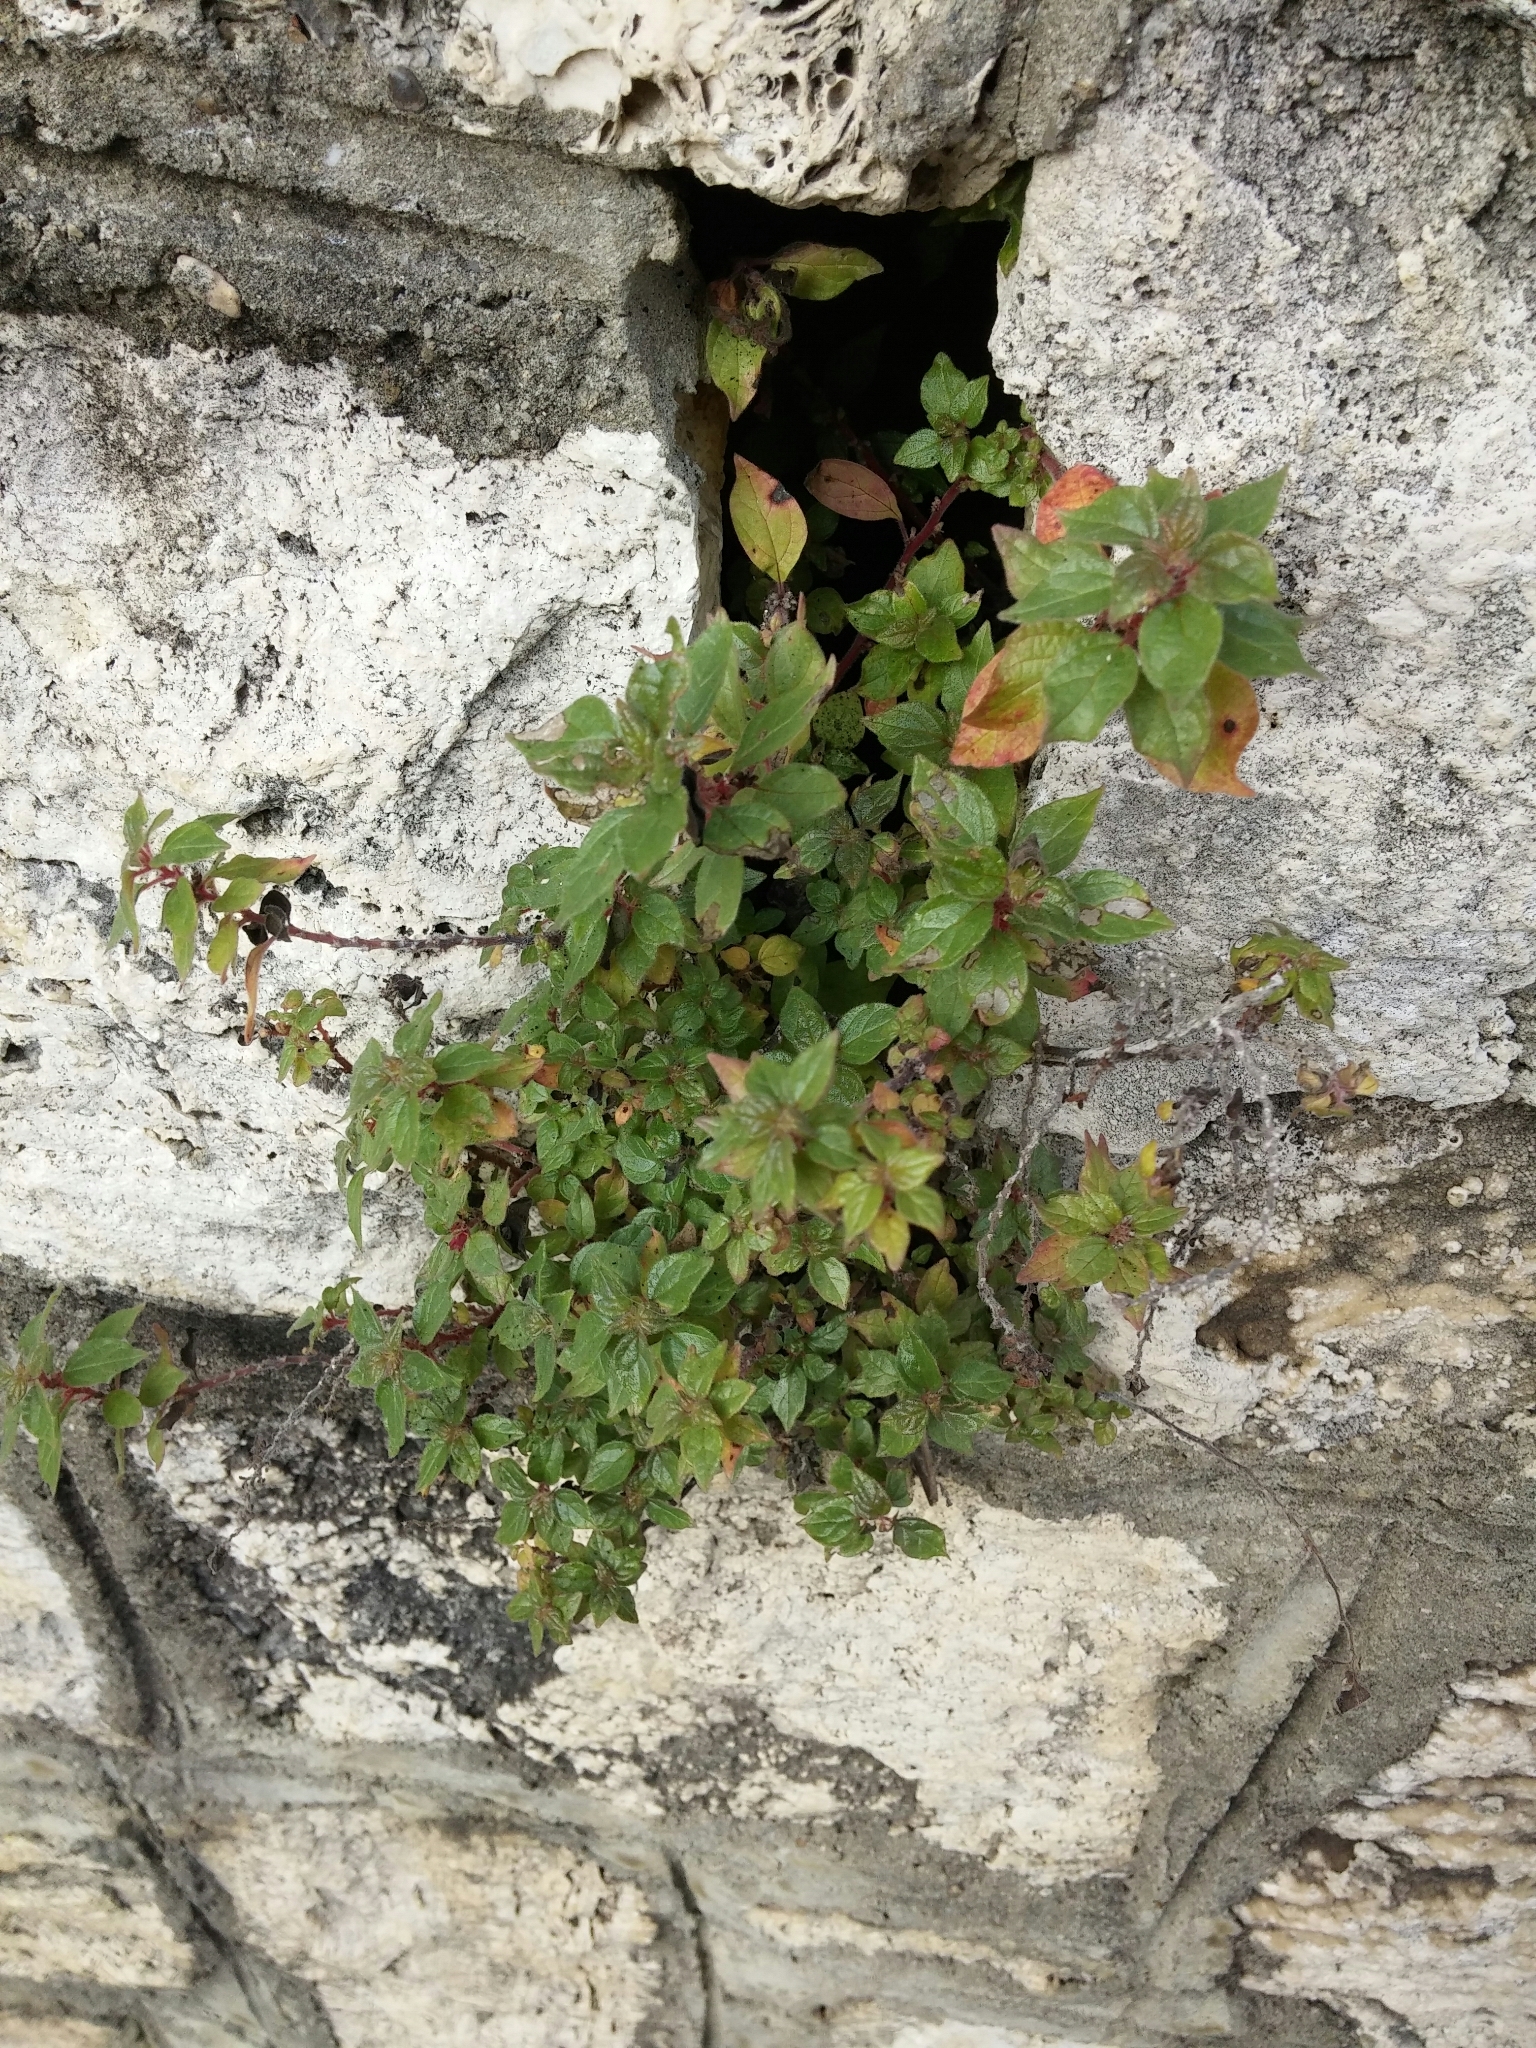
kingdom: Plantae
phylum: Tracheophyta
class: Magnoliopsida
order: Rosales
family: Urticaceae
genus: Parietaria
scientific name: Parietaria officinalis
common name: Eastern pellitory-of-the-wall
